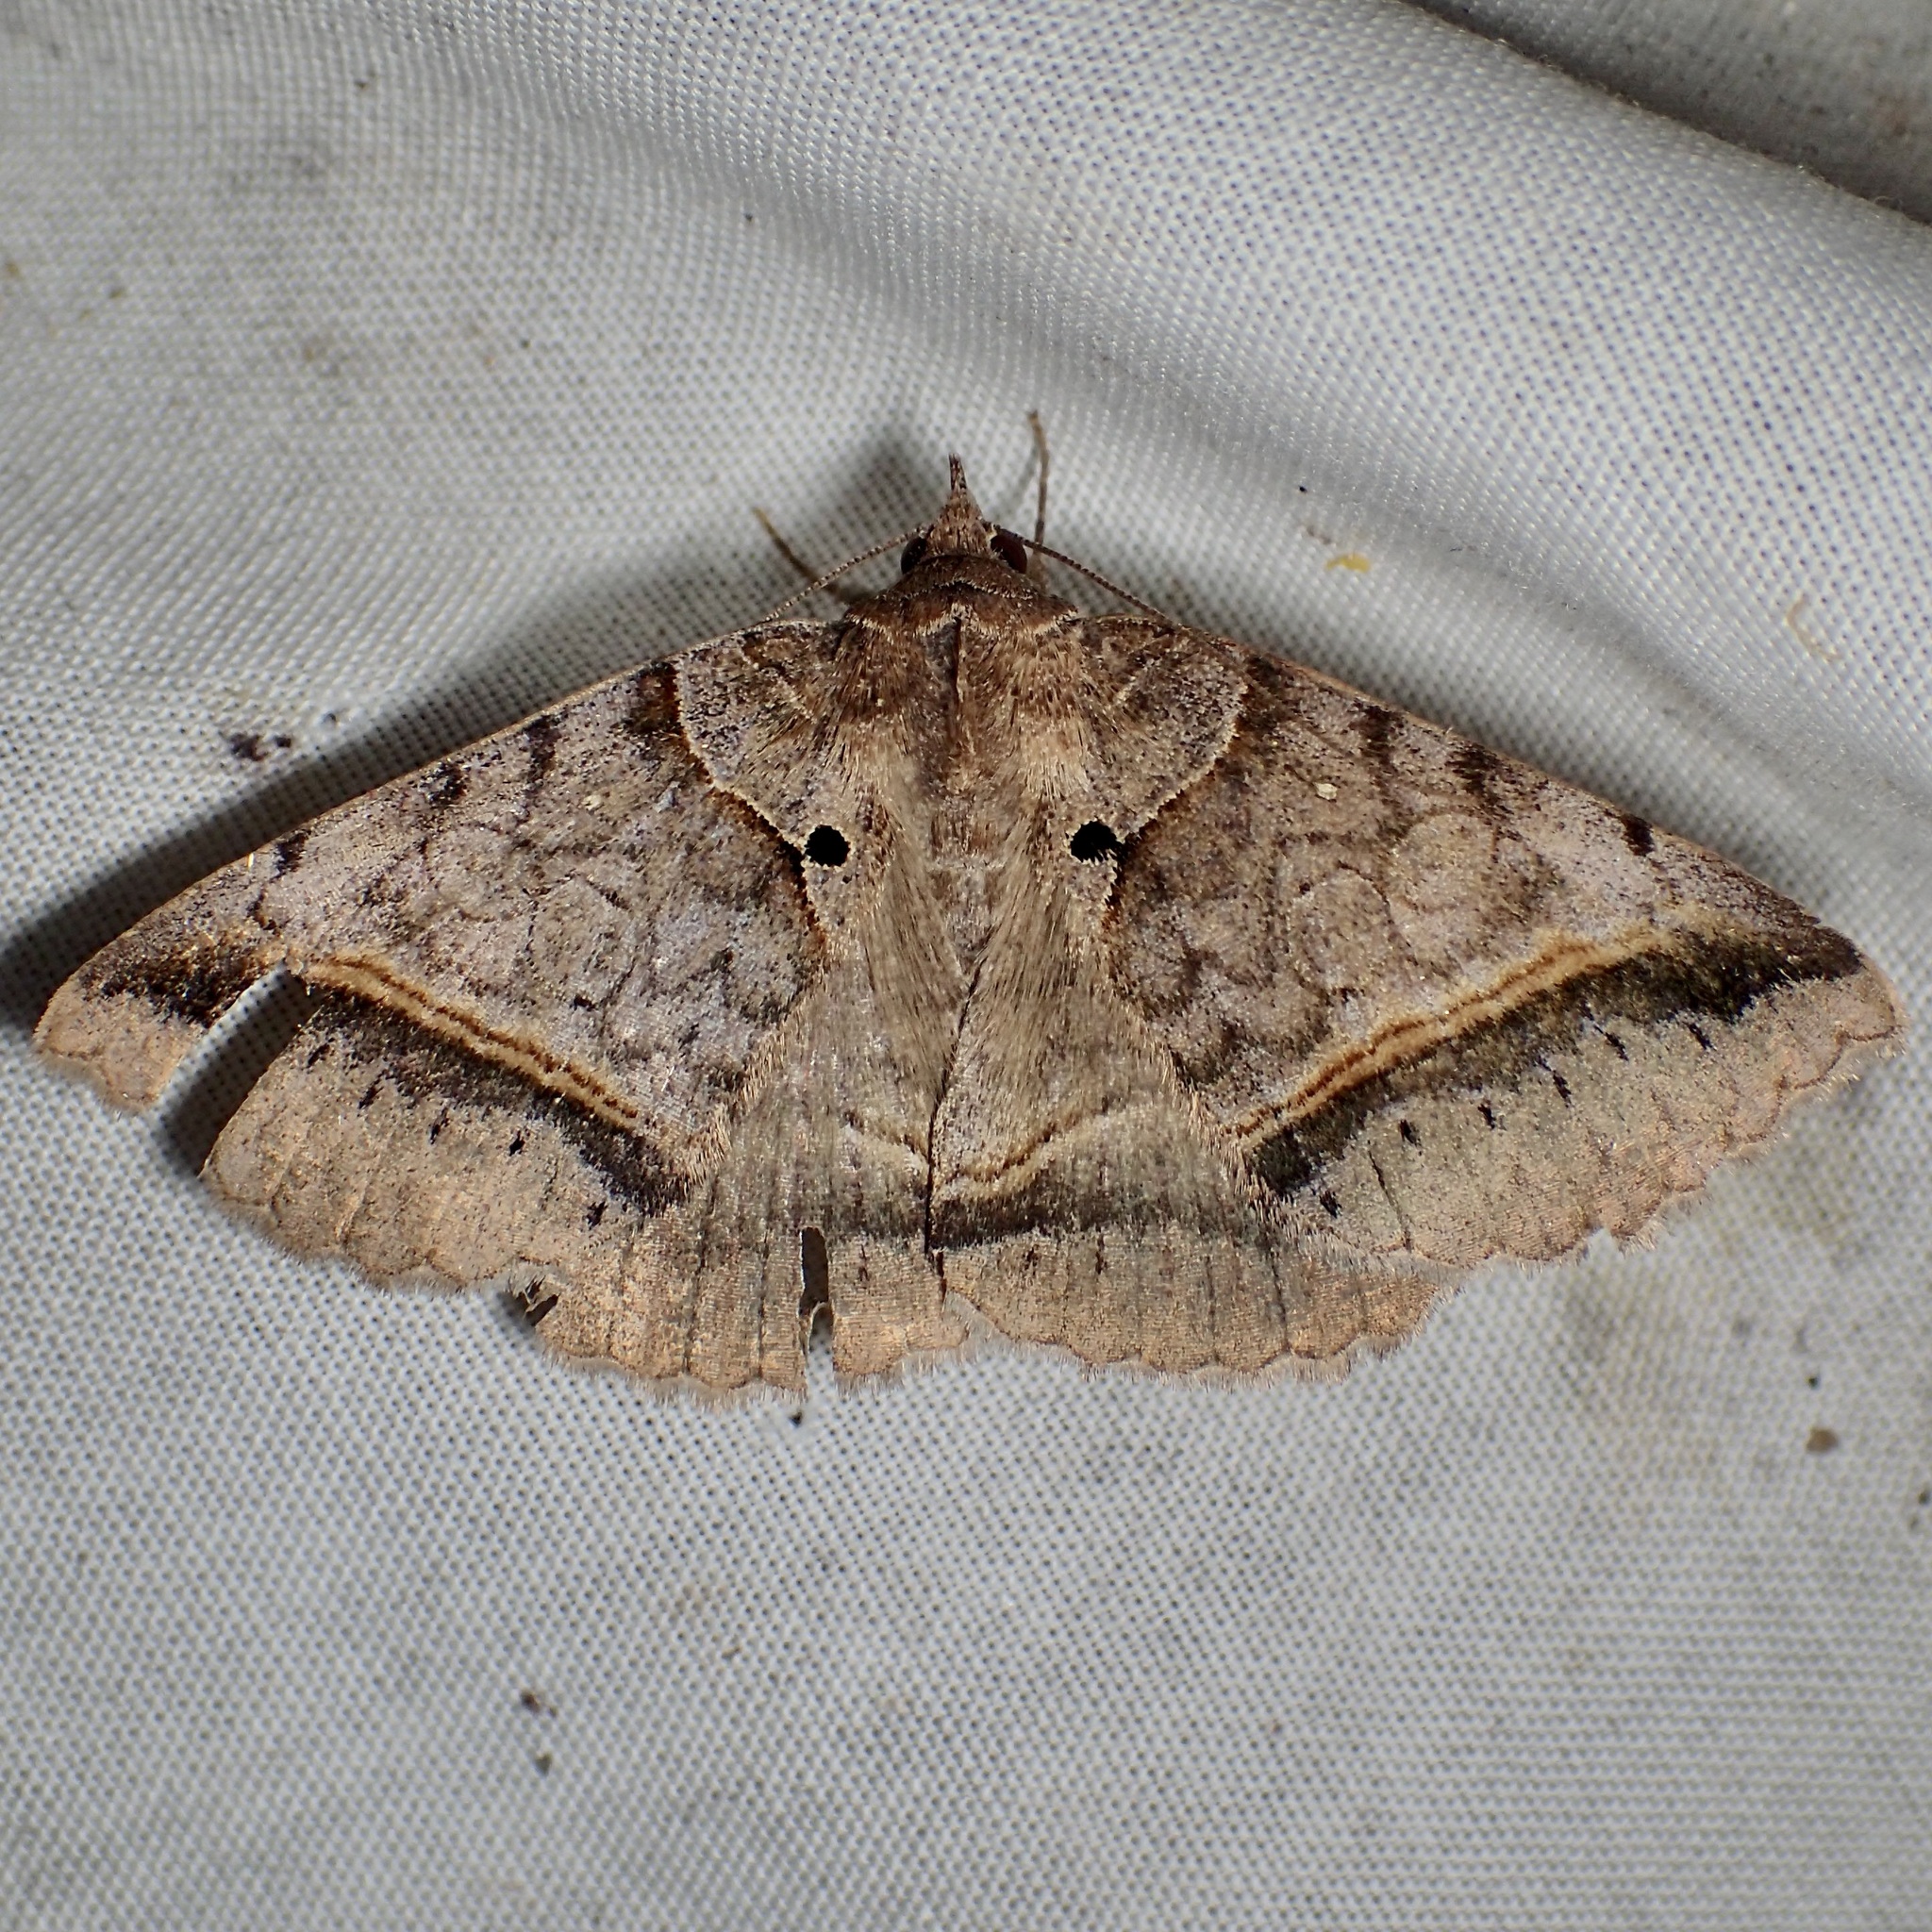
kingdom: Animalia
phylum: Arthropoda
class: Insecta
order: Lepidoptera
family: Erebidae
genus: Celiptera
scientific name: Celiptera valina
